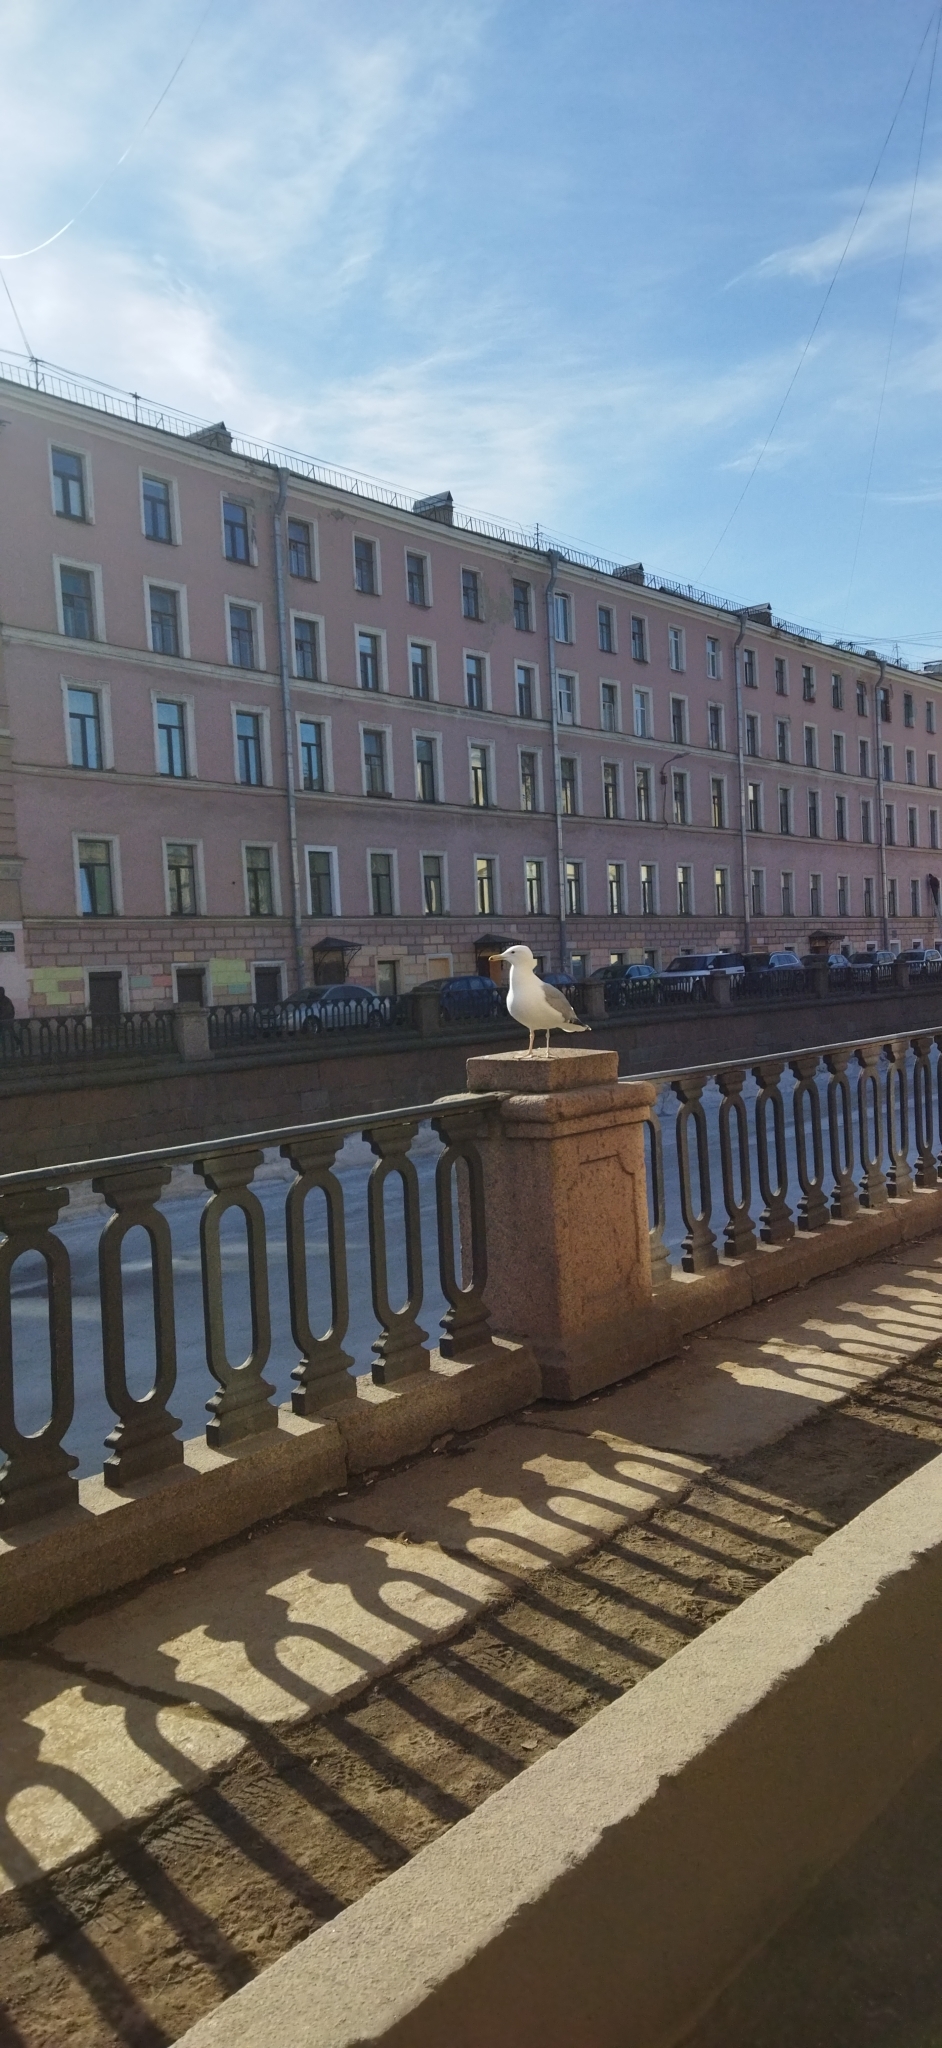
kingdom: Animalia
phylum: Chordata
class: Aves
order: Charadriiformes
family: Laridae
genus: Larus
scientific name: Larus argentatus
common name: Herring gull
